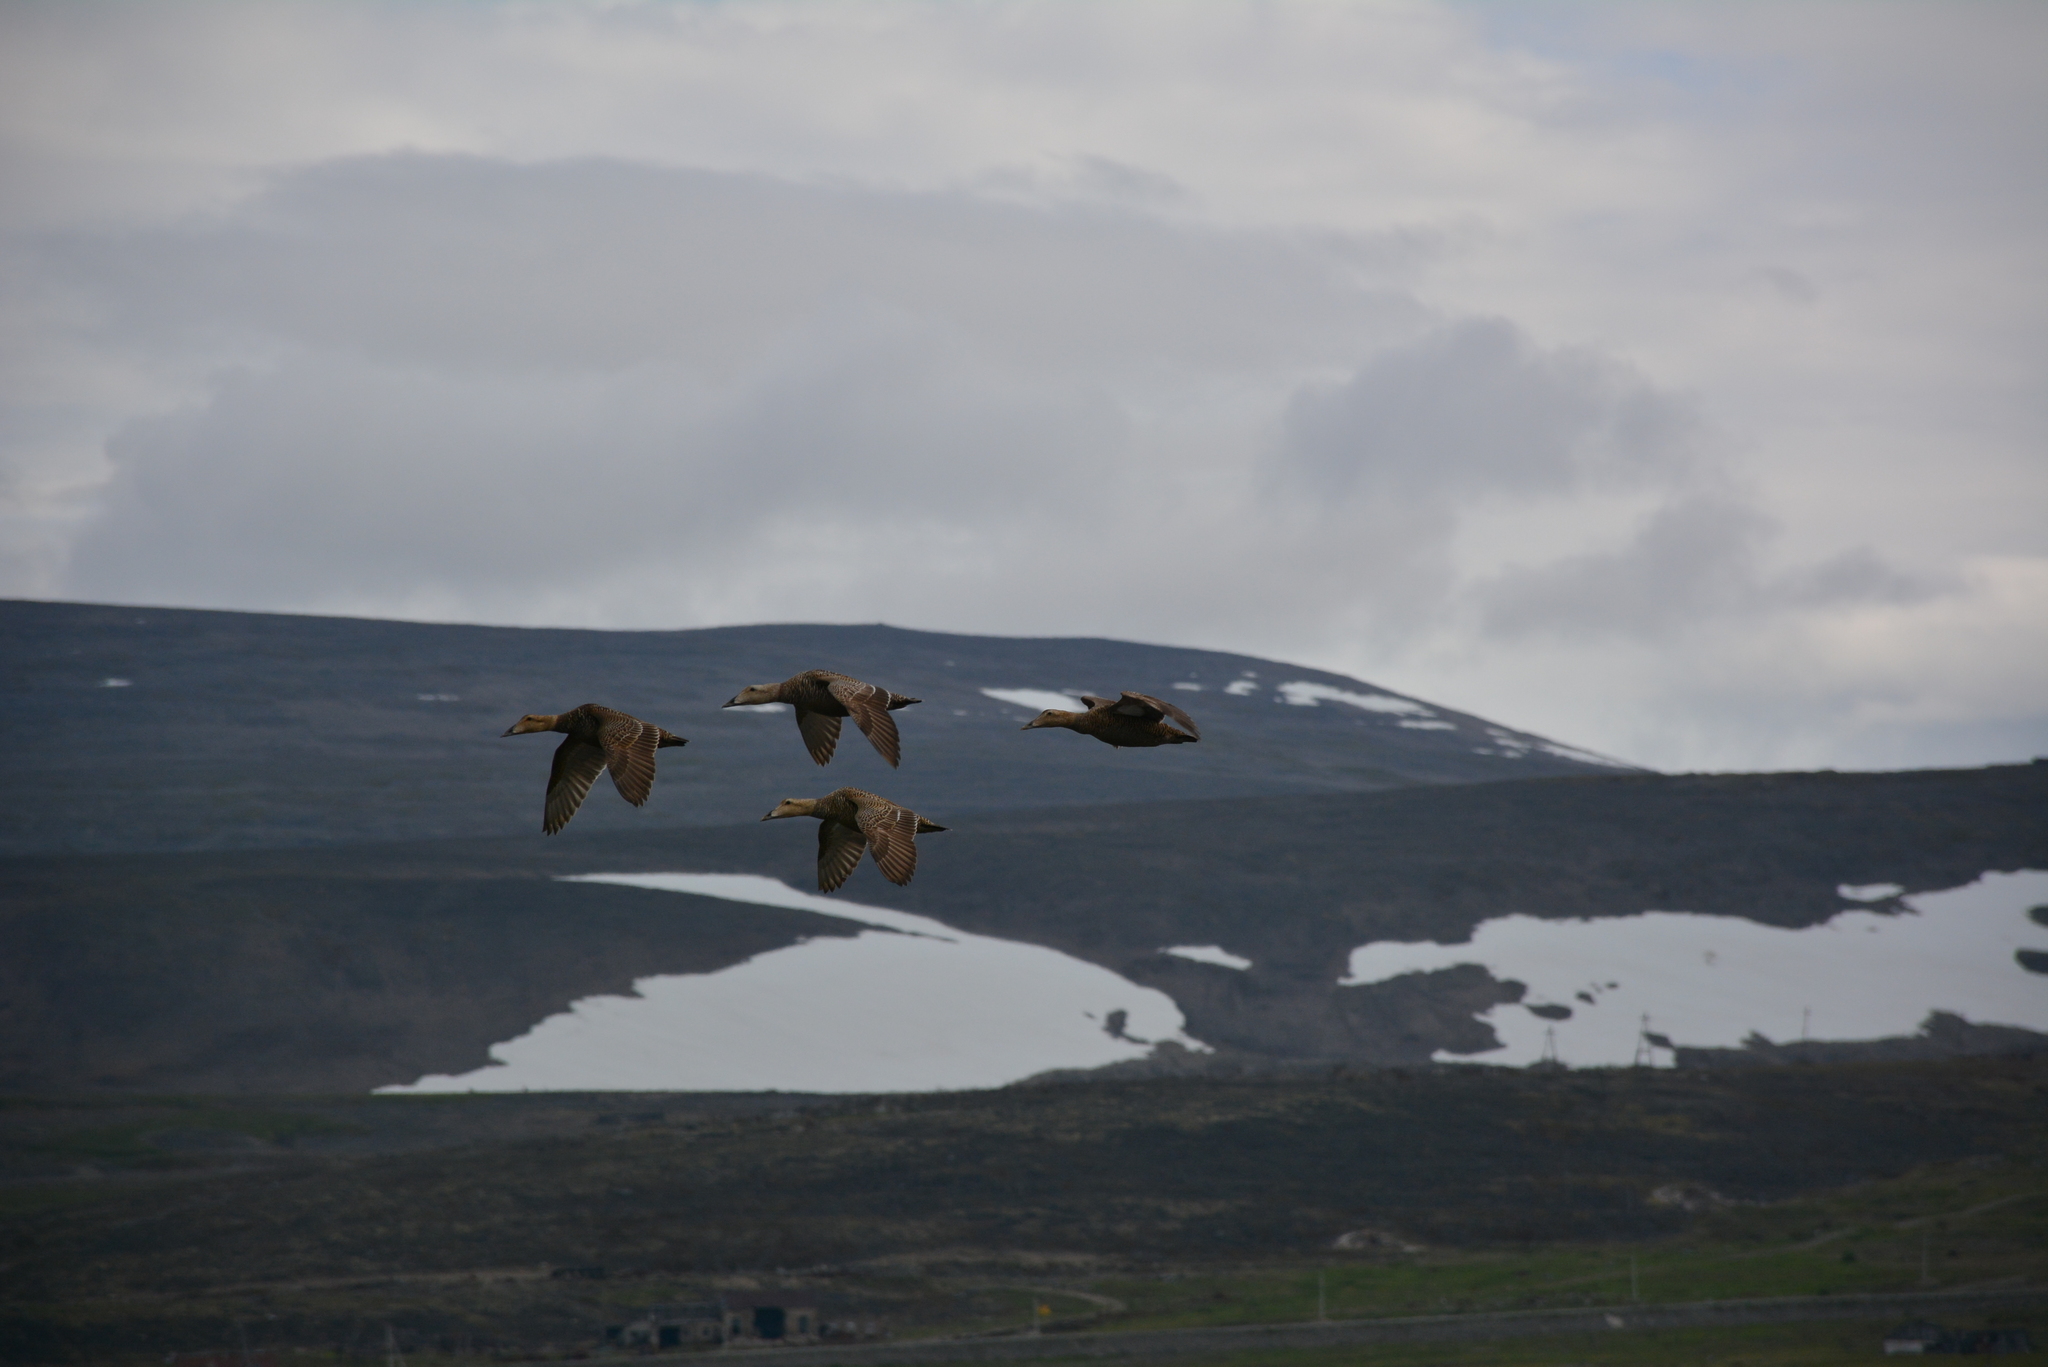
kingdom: Animalia
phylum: Chordata
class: Aves
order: Anseriformes
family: Anatidae
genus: Somateria
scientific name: Somateria mollissima
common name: Common eider
